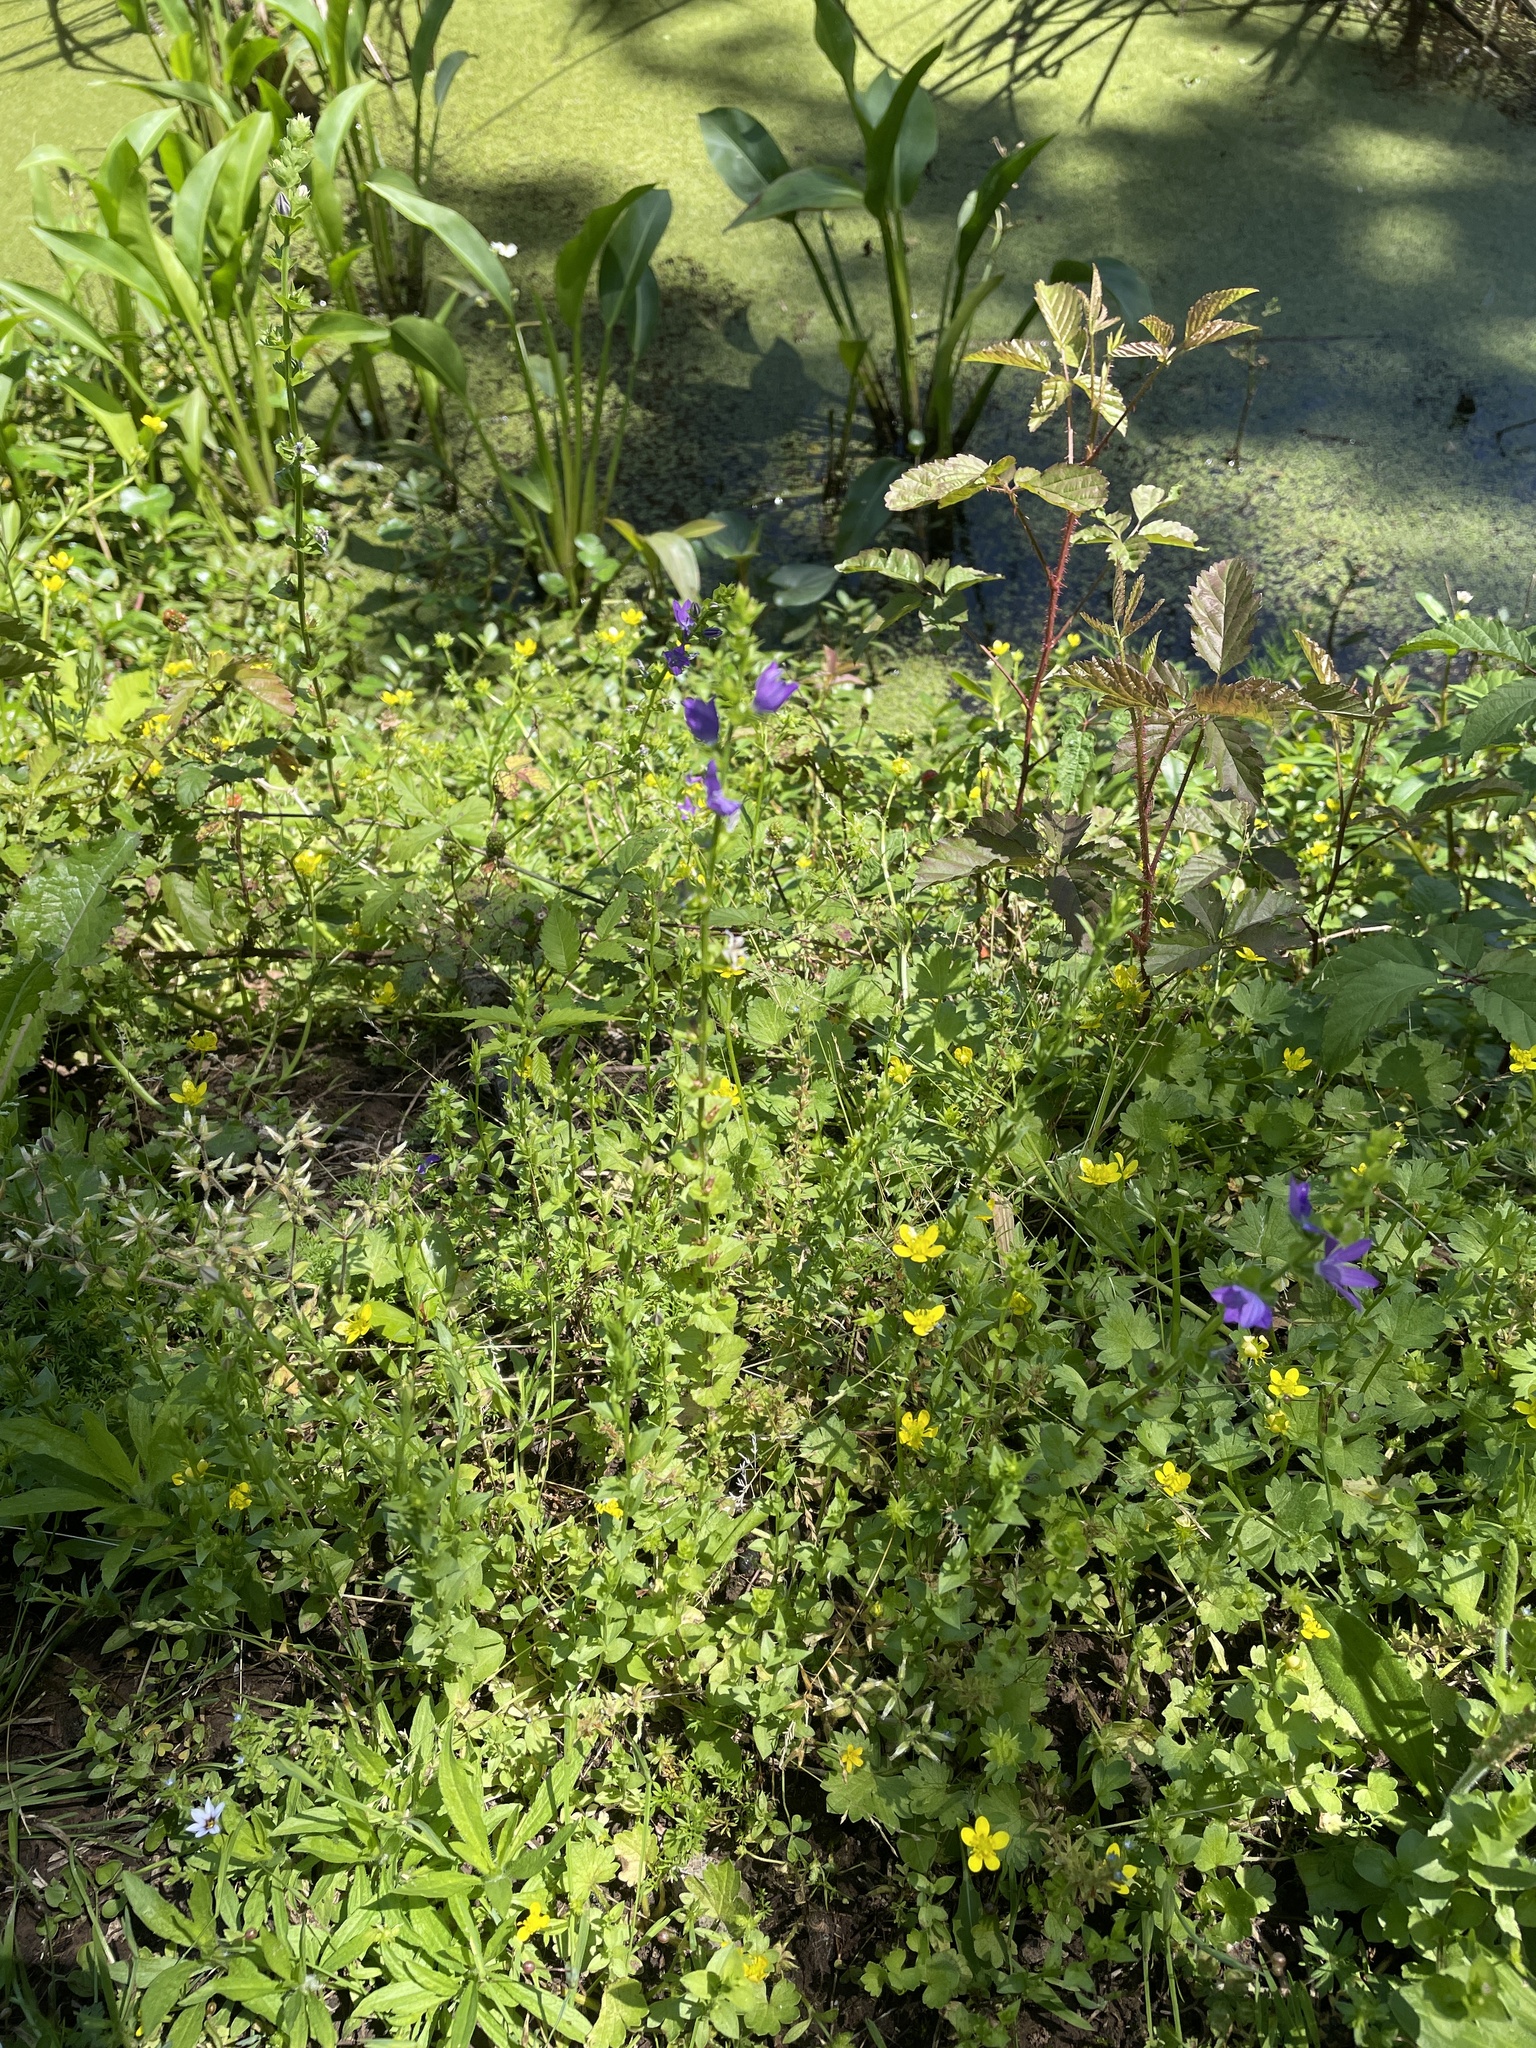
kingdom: Plantae
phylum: Tracheophyta
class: Magnoliopsida
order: Asterales
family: Campanulaceae
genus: Triodanis
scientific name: Triodanis perfoliata
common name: Clasping venus' looking-glass
